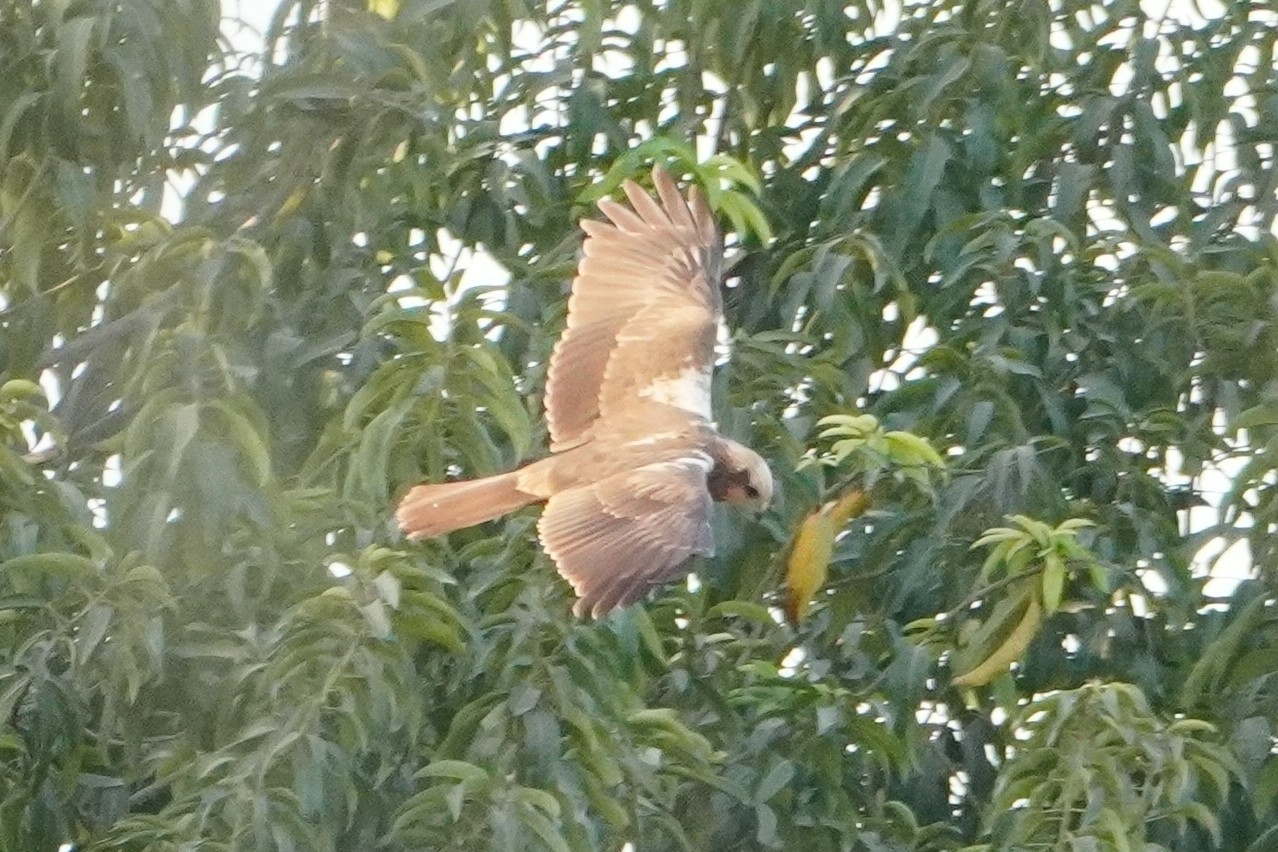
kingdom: Animalia
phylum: Chordata
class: Aves
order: Accipitriformes
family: Accipitridae
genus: Circus
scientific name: Circus aeruginosus
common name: Western marsh harrier
